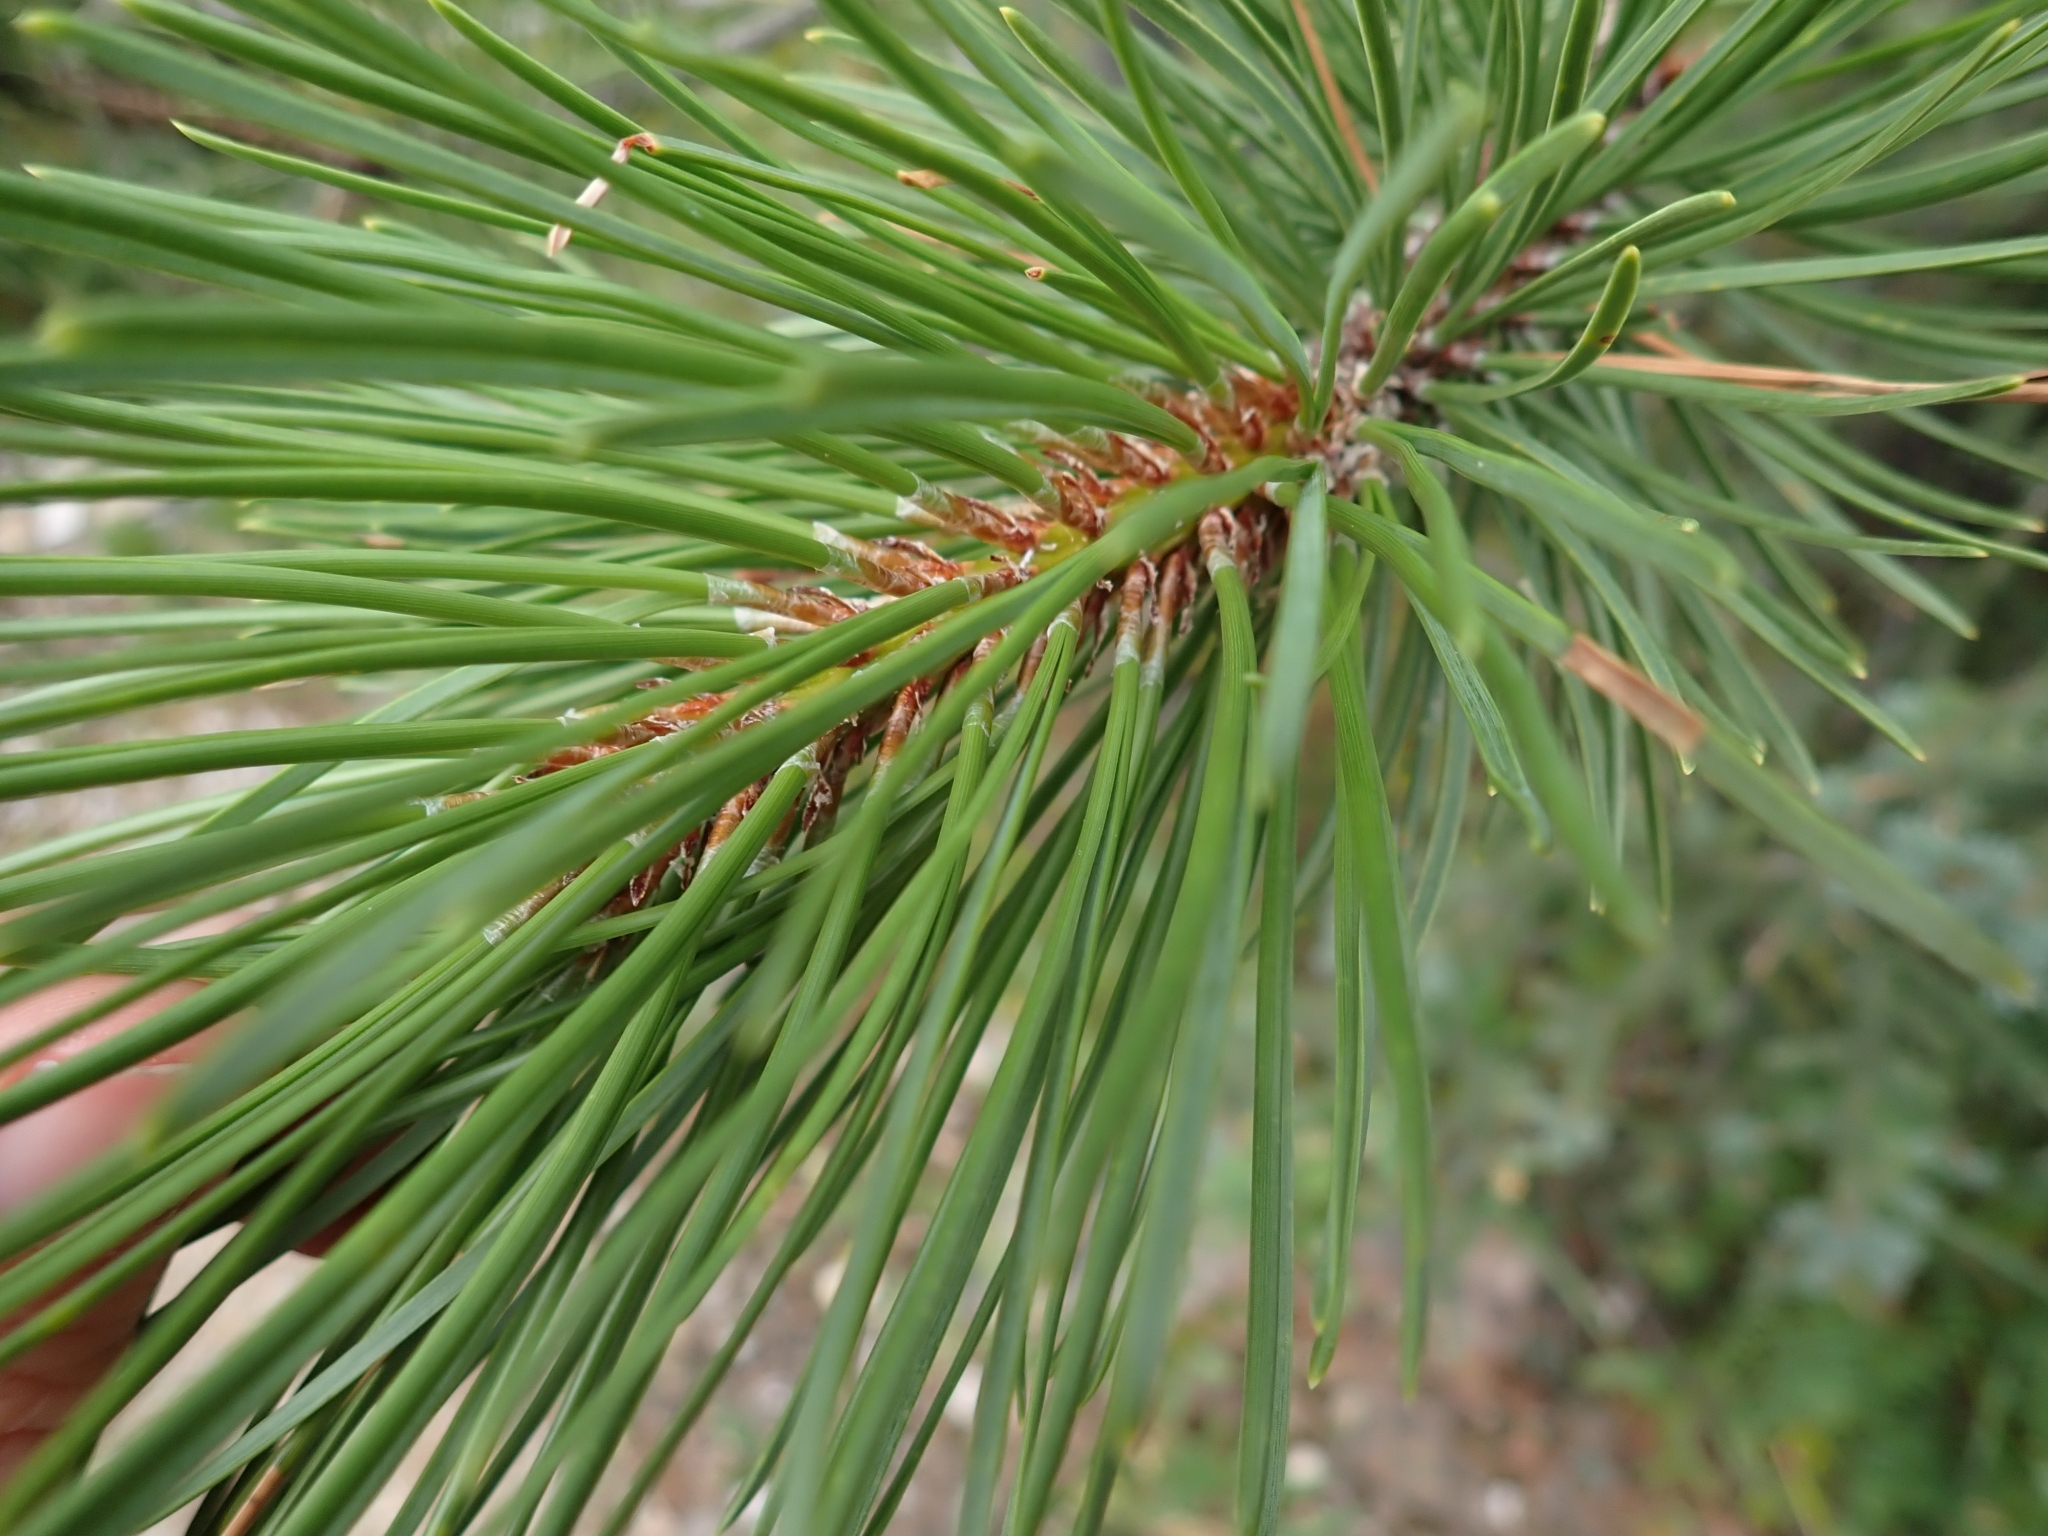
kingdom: Plantae
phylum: Tracheophyta
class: Pinopsida
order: Pinales
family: Pinaceae
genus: Pinus
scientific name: Pinus contorta
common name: Lodgepole pine
